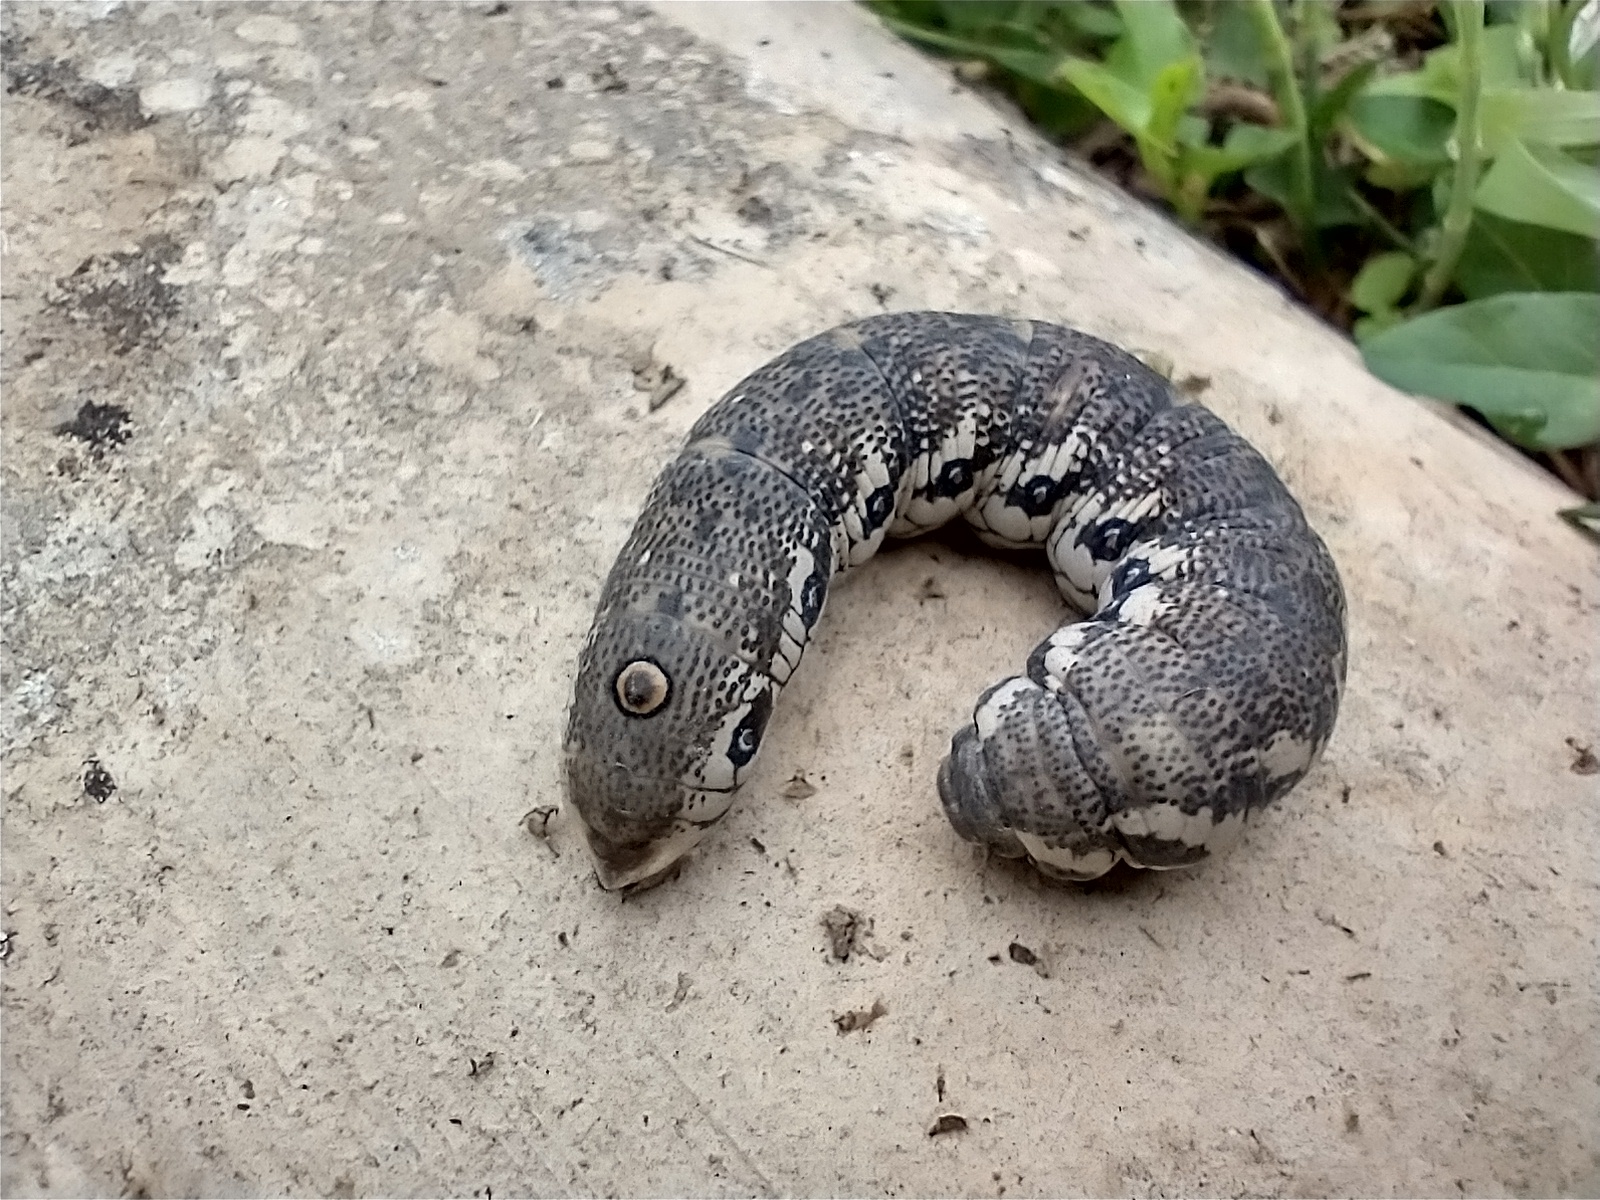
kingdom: Animalia
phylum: Arthropoda
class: Insecta
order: Lepidoptera
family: Sphingidae
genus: Proserpinus
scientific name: Proserpinus proserpina
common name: Willowherb hawkmoth
